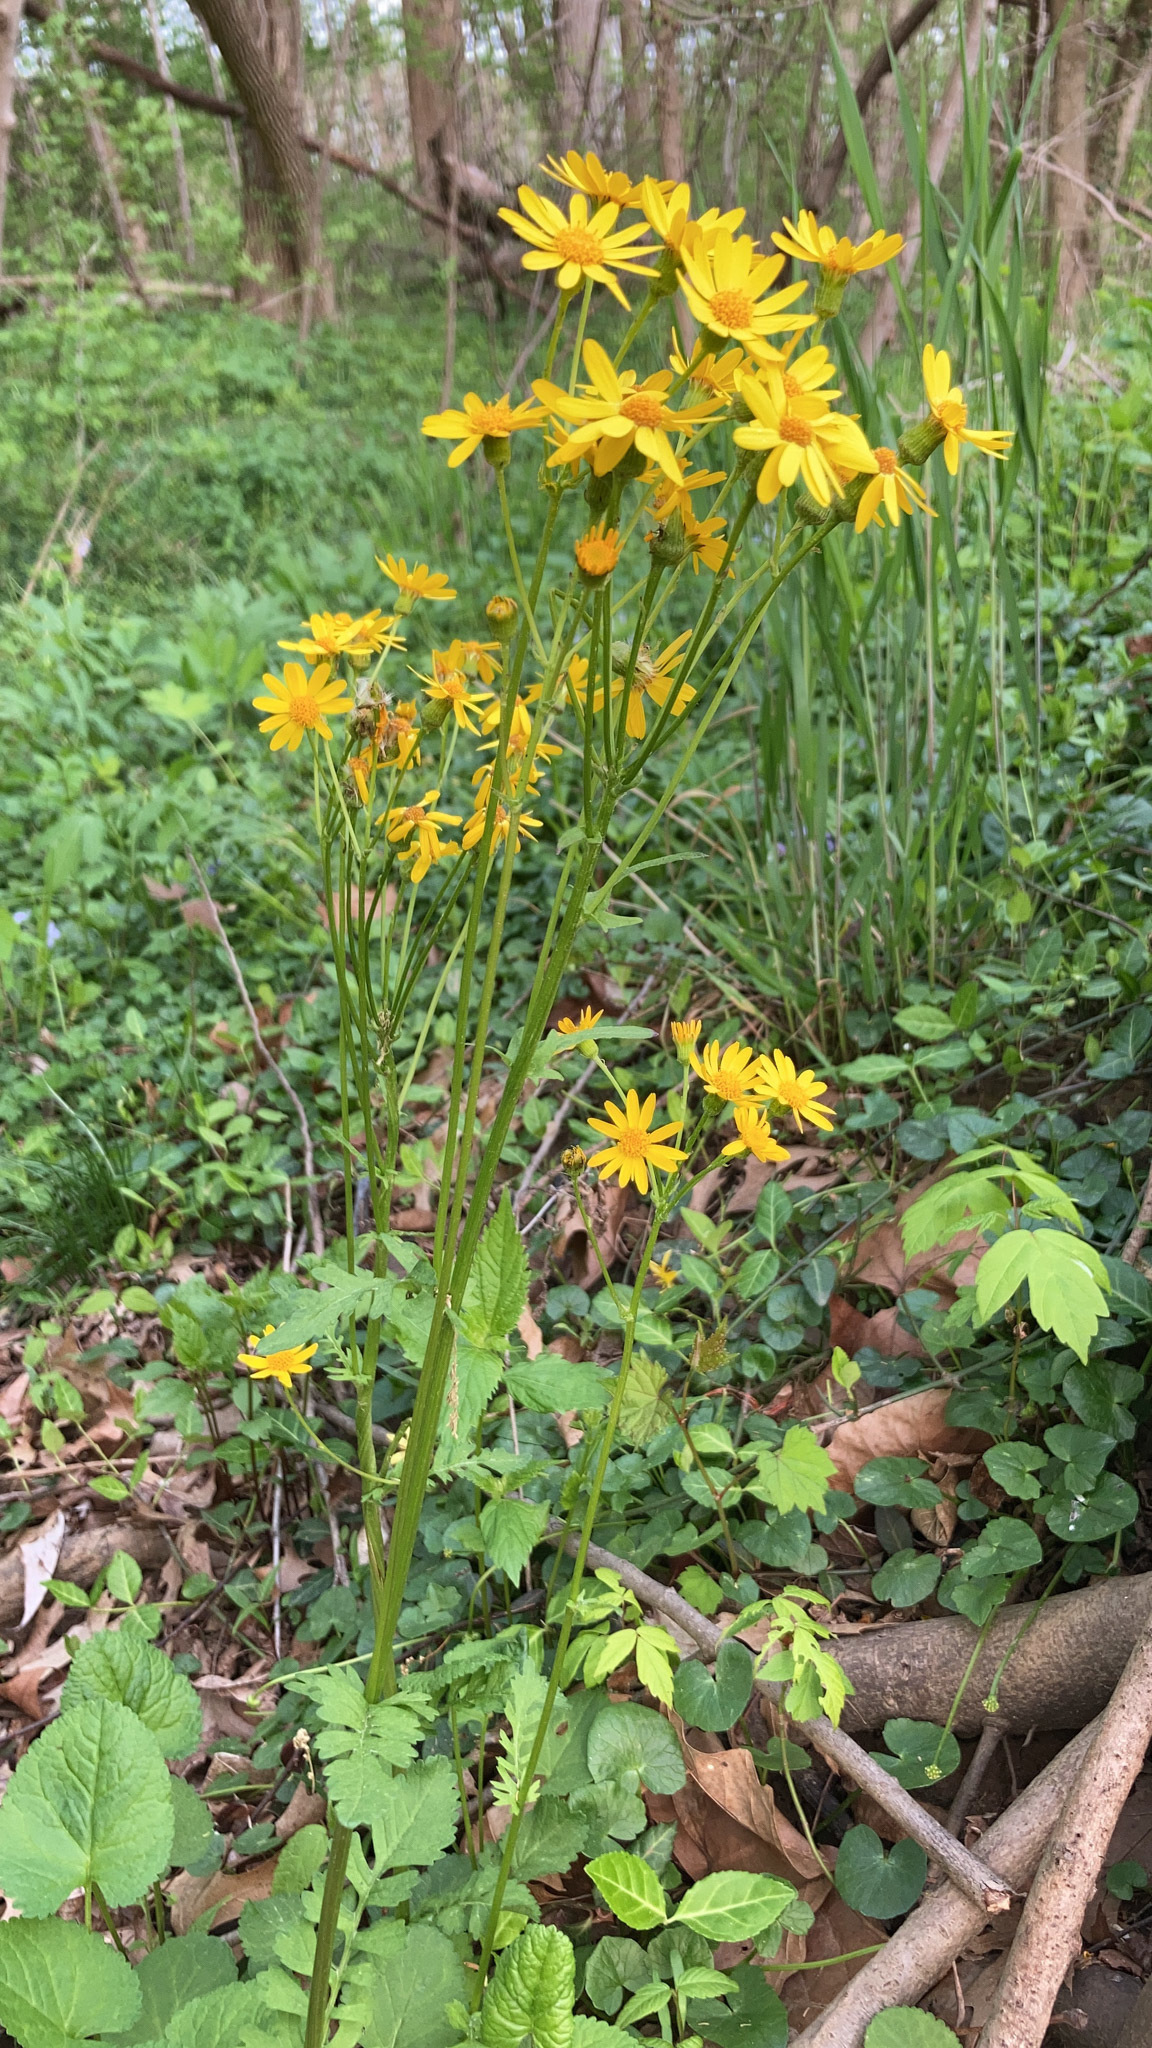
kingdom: Plantae
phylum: Tracheophyta
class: Magnoliopsida
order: Asterales
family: Asteraceae
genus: Packera
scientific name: Packera aurea
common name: Golden groundsel
